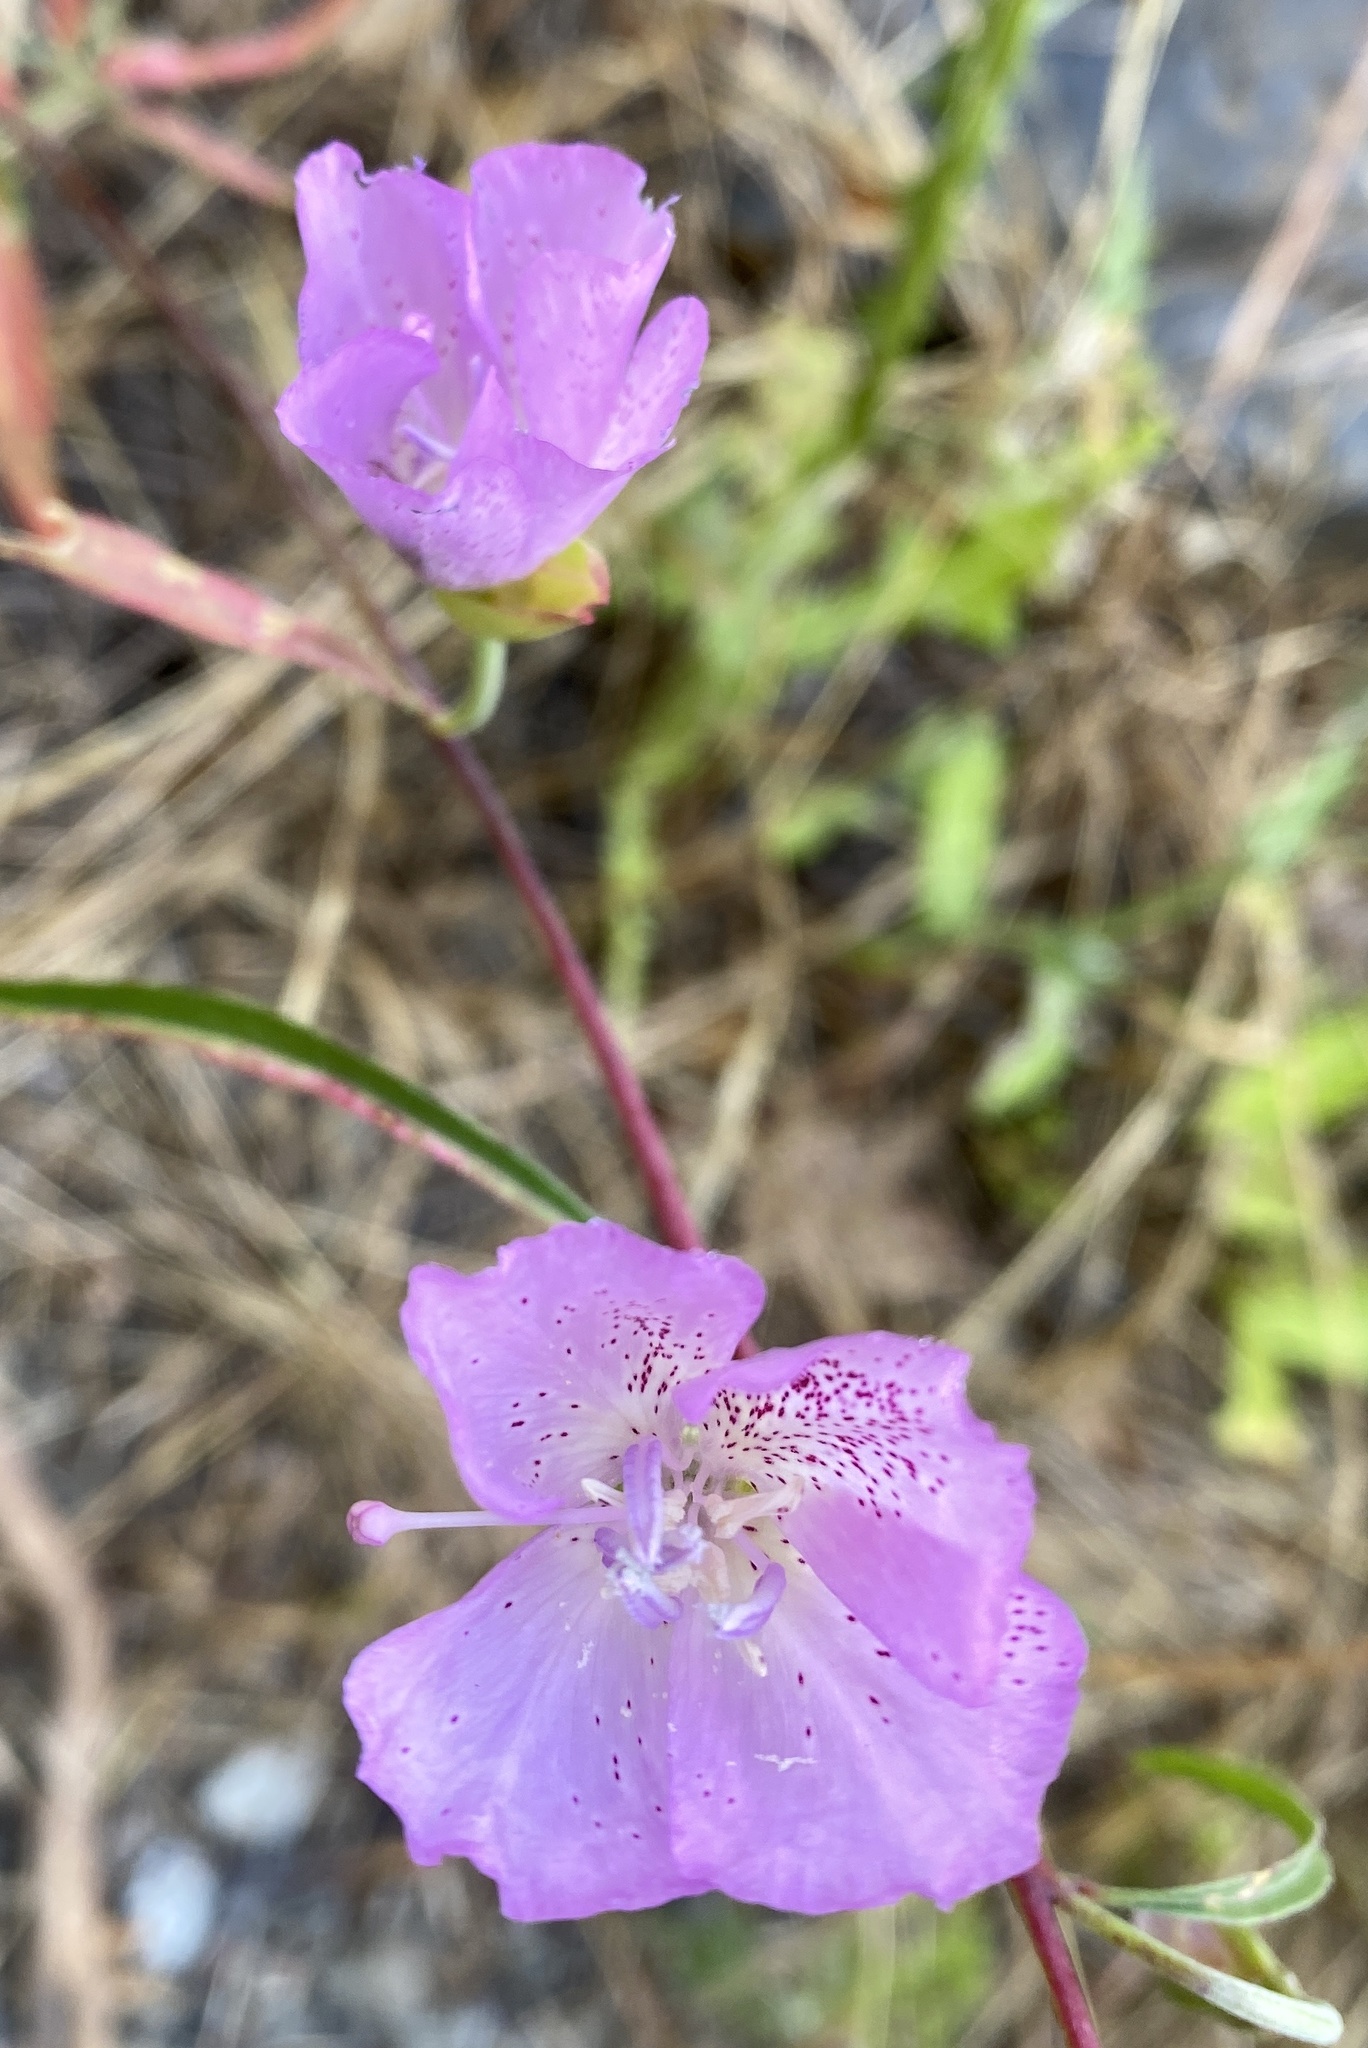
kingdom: Plantae
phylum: Tracheophyta
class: Magnoliopsida
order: Myrtales
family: Onagraceae
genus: Clarkia
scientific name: Clarkia bottae
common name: Punch-bowl godetia
